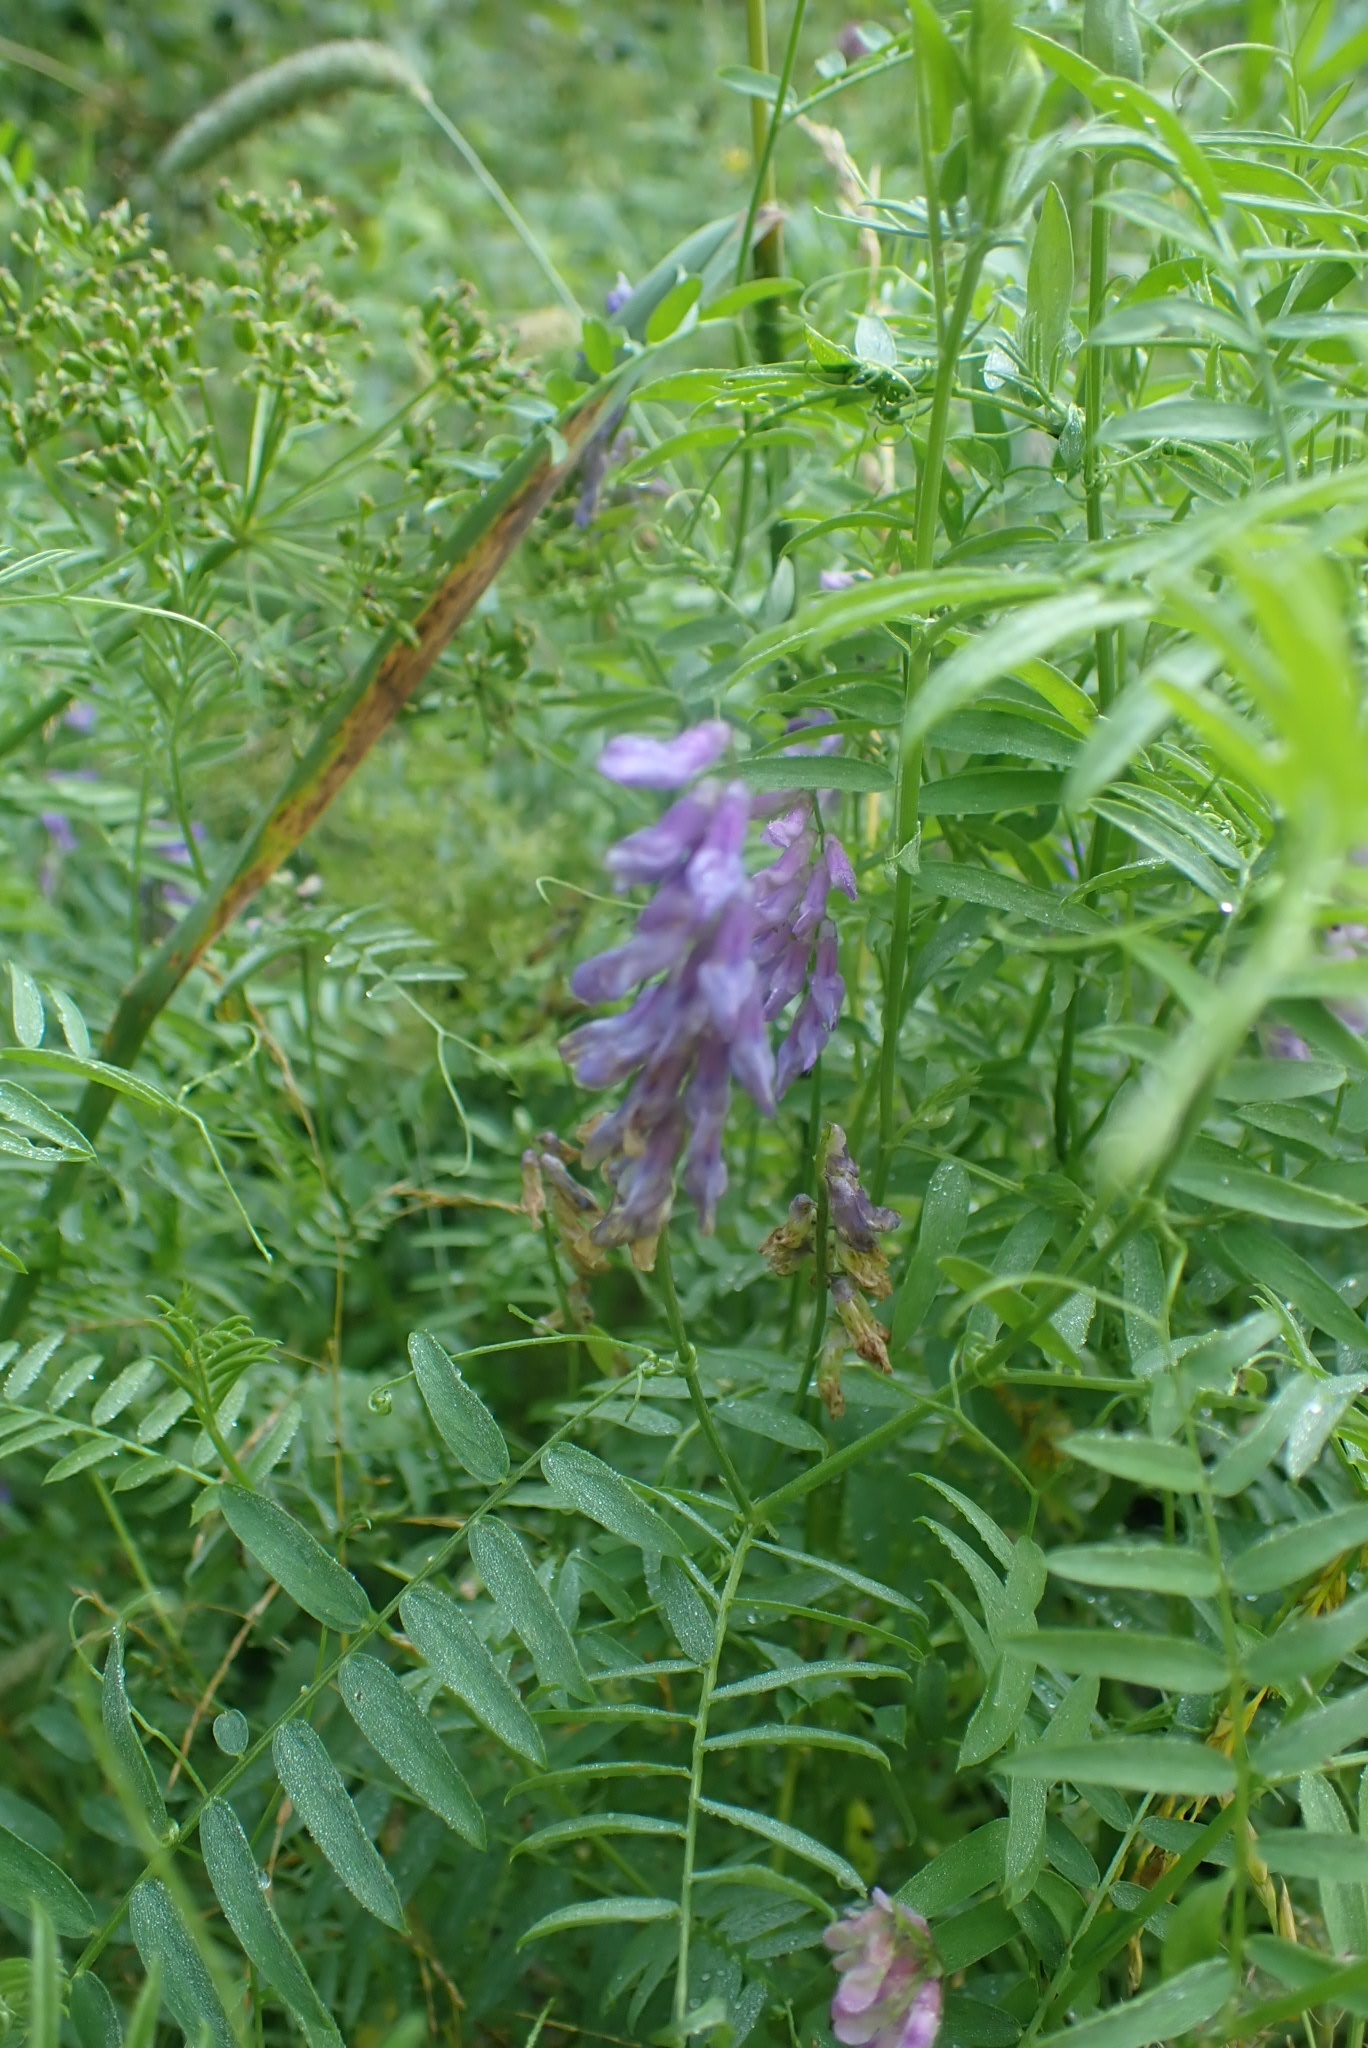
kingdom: Plantae
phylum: Tracheophyta
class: Magnoliopsida
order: Fabales
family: Fabaceae
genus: Vicia
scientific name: Vicia cracca
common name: Bird vetch
